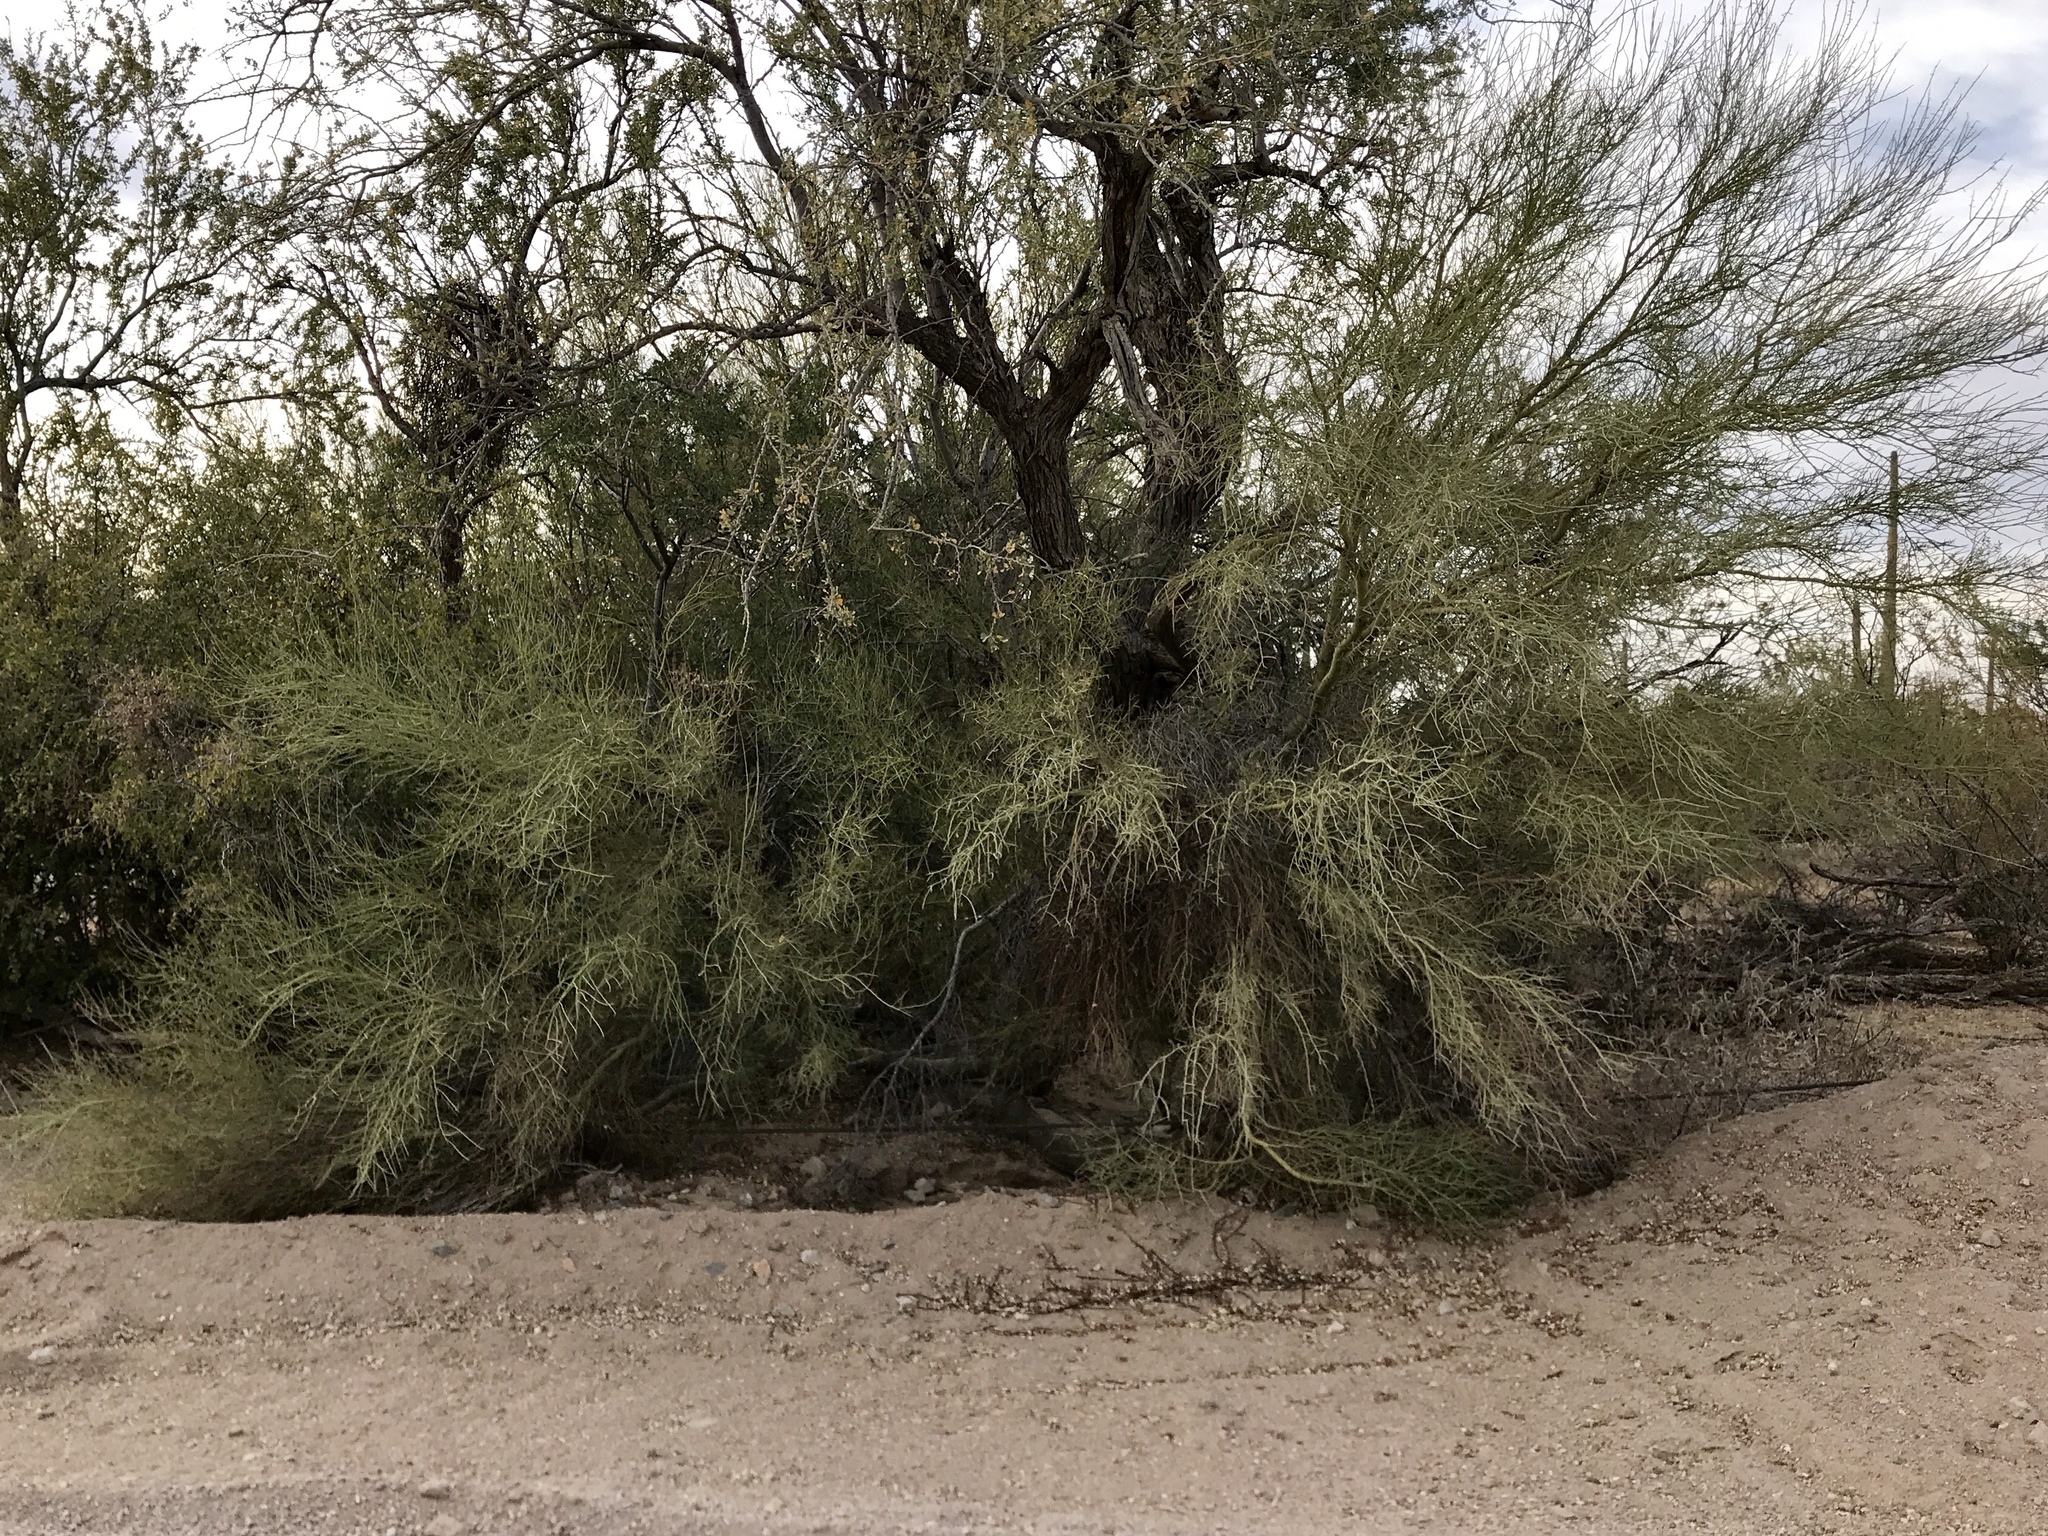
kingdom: Plantae
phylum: Tracheophyta
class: Magnoliopsida
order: Fabales
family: Fabaceae
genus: Parkinsonia
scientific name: Parkinsonia florida
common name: Blue paloverde
